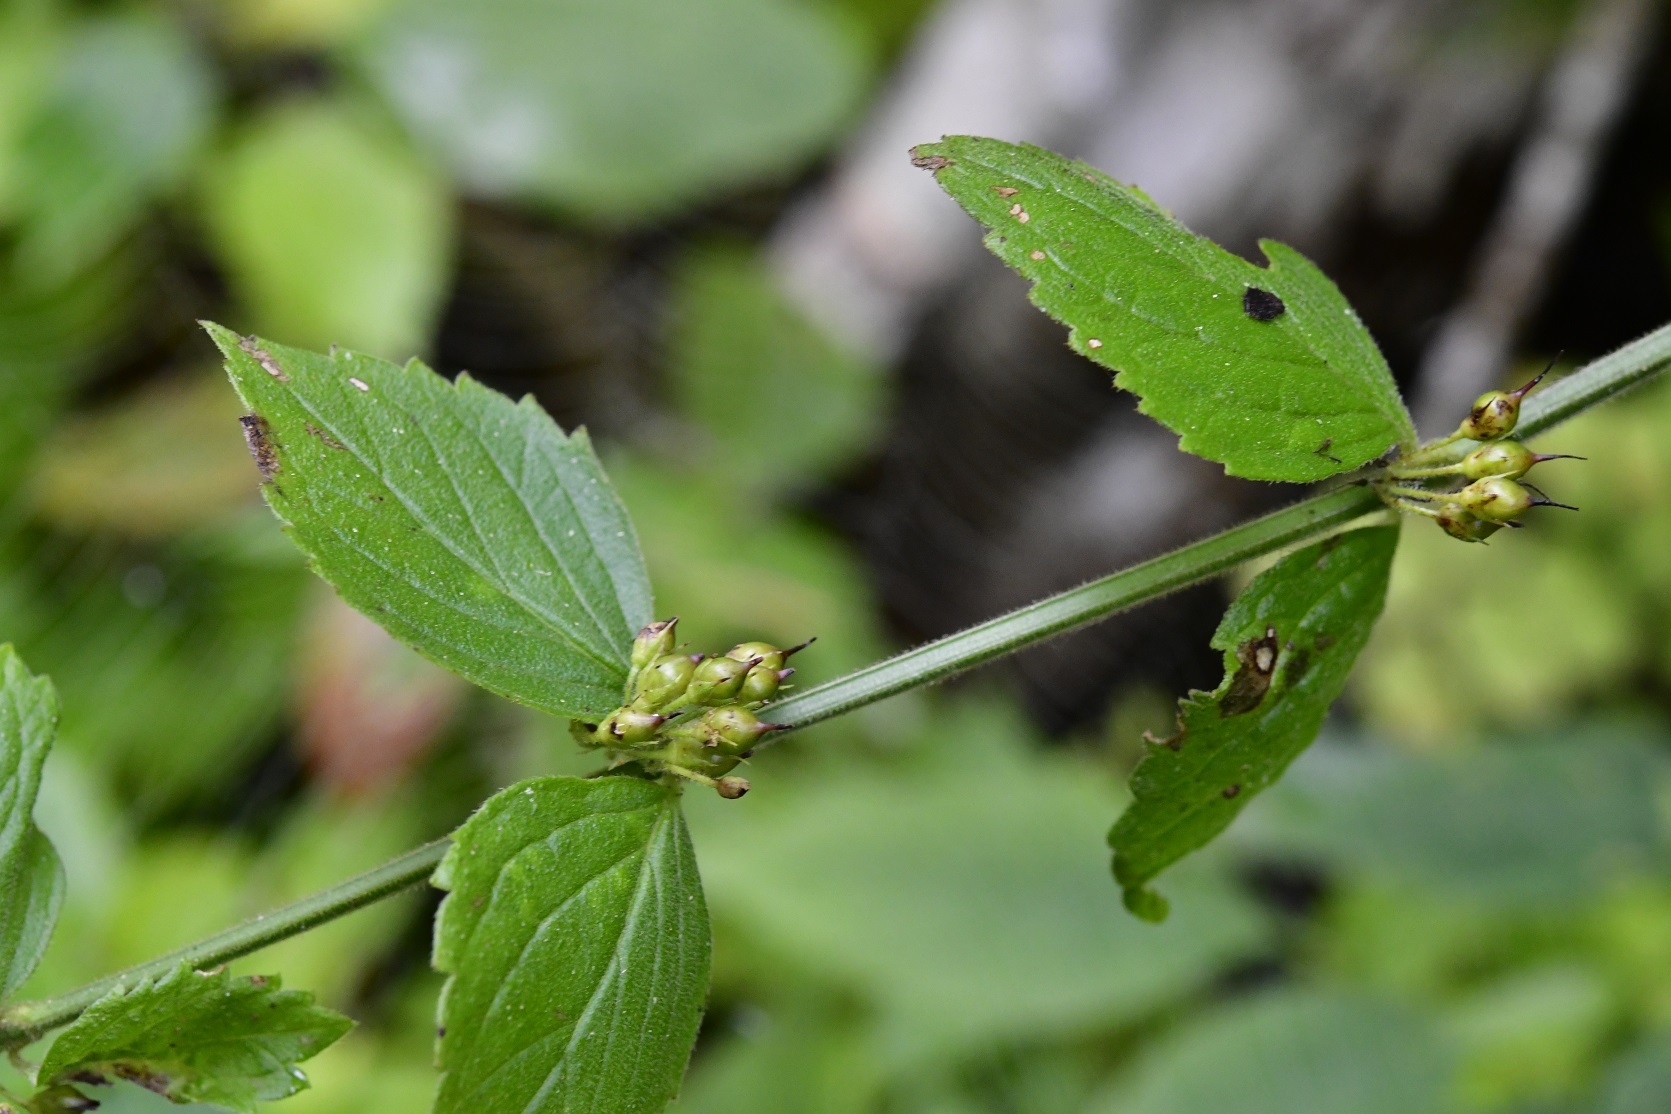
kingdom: Plantae
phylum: Tracheophyta
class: Magnoliopsida
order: Lamiales
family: Plantaginaceae
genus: Russelia
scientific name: Russelia sarmentosa
